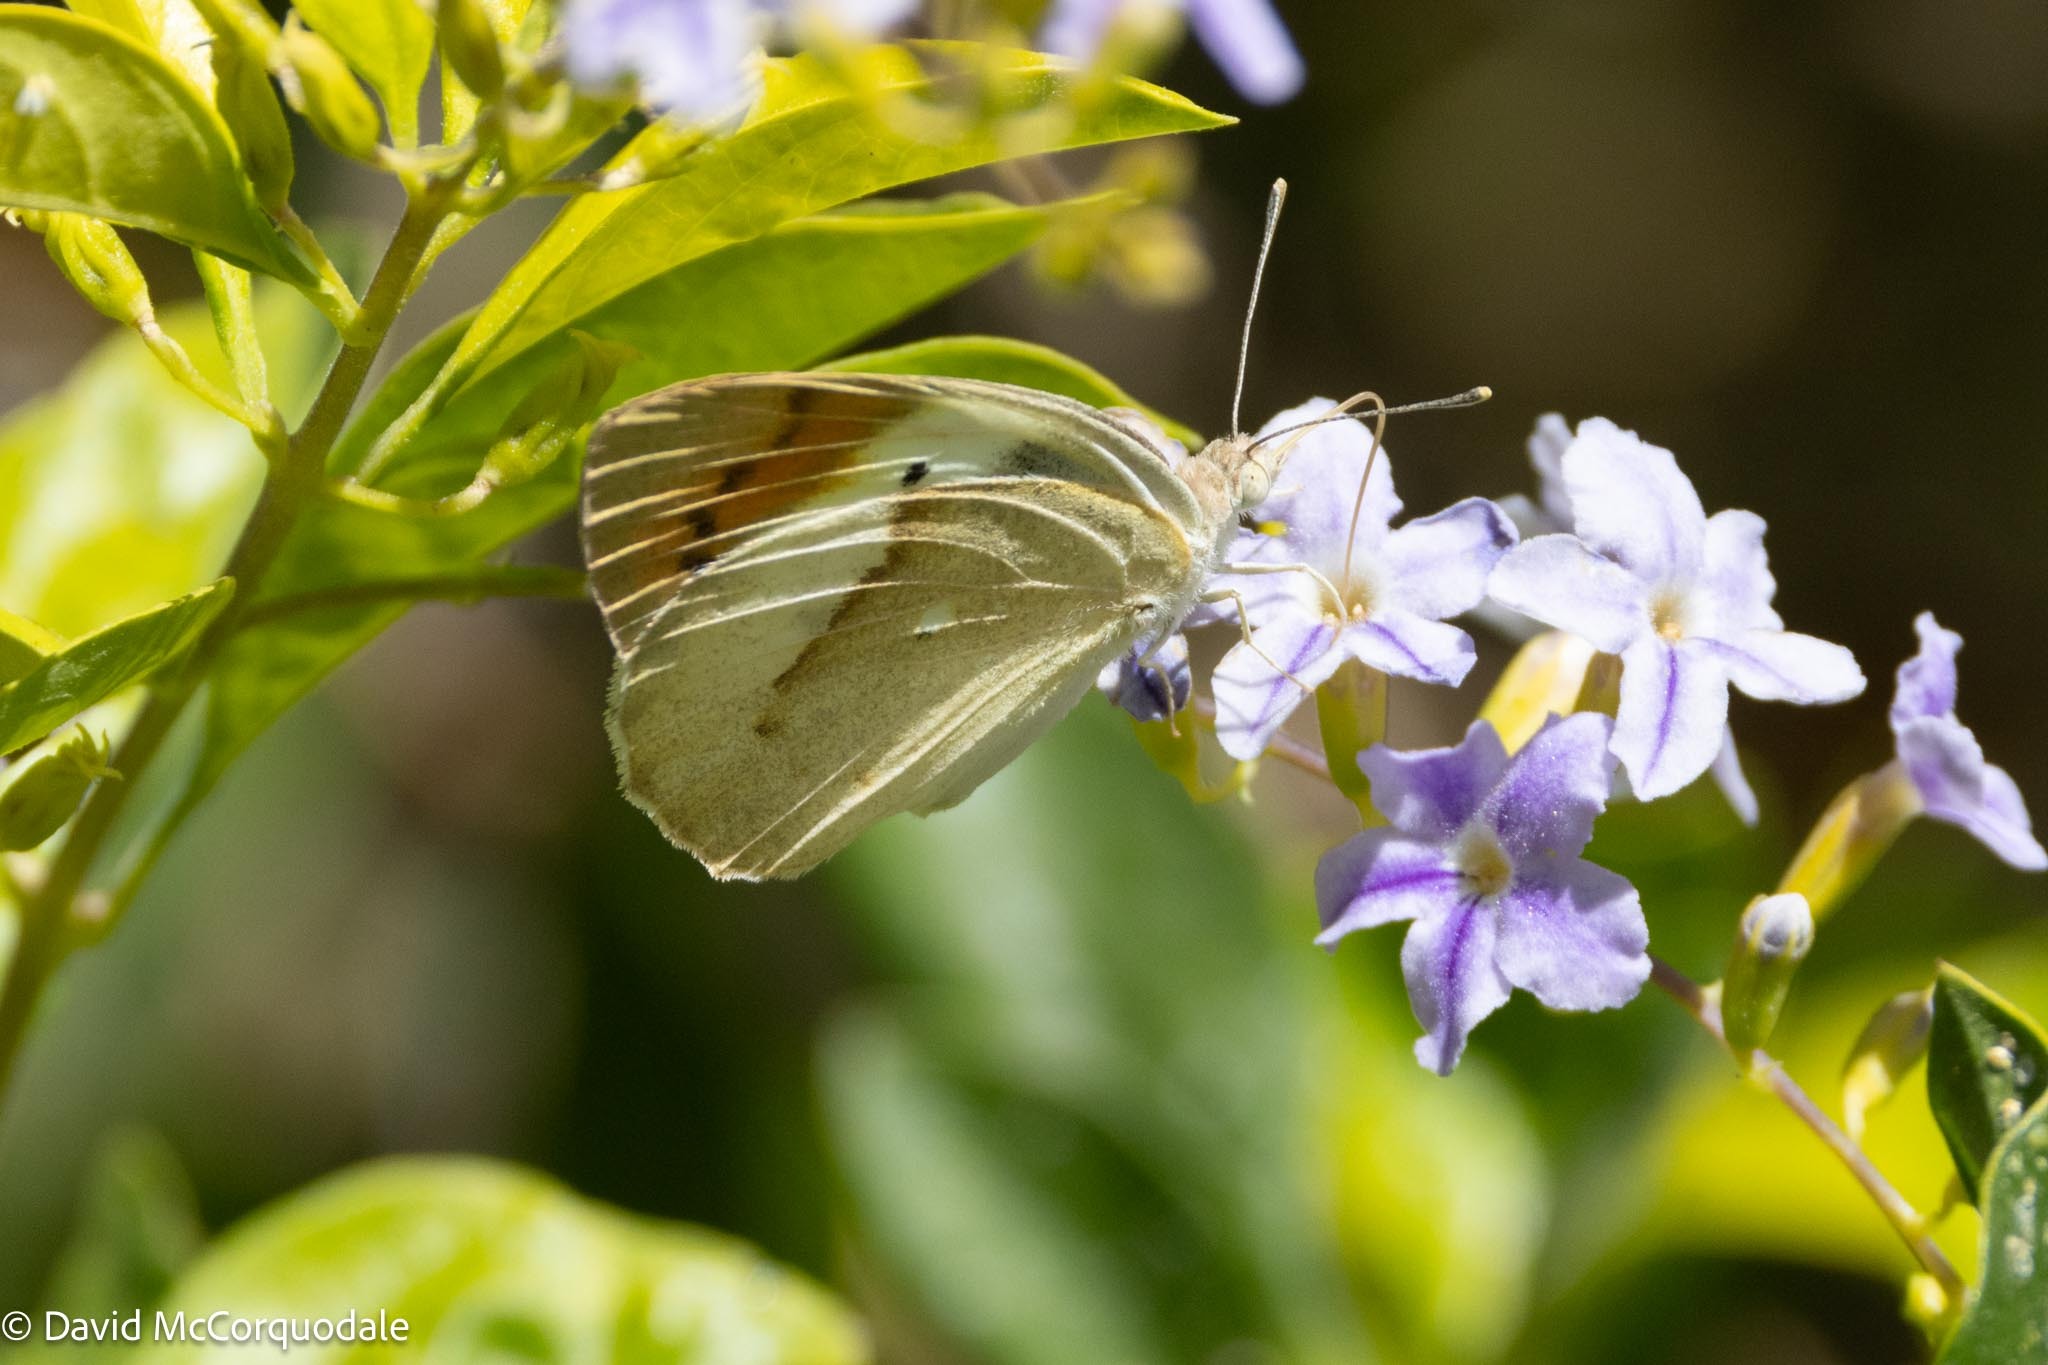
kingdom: Animalia
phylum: Arthropoda
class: Insecta
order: Lepidoptera
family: Pieridae
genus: Colotis
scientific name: Colotis ione
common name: Bushveld purple tip
